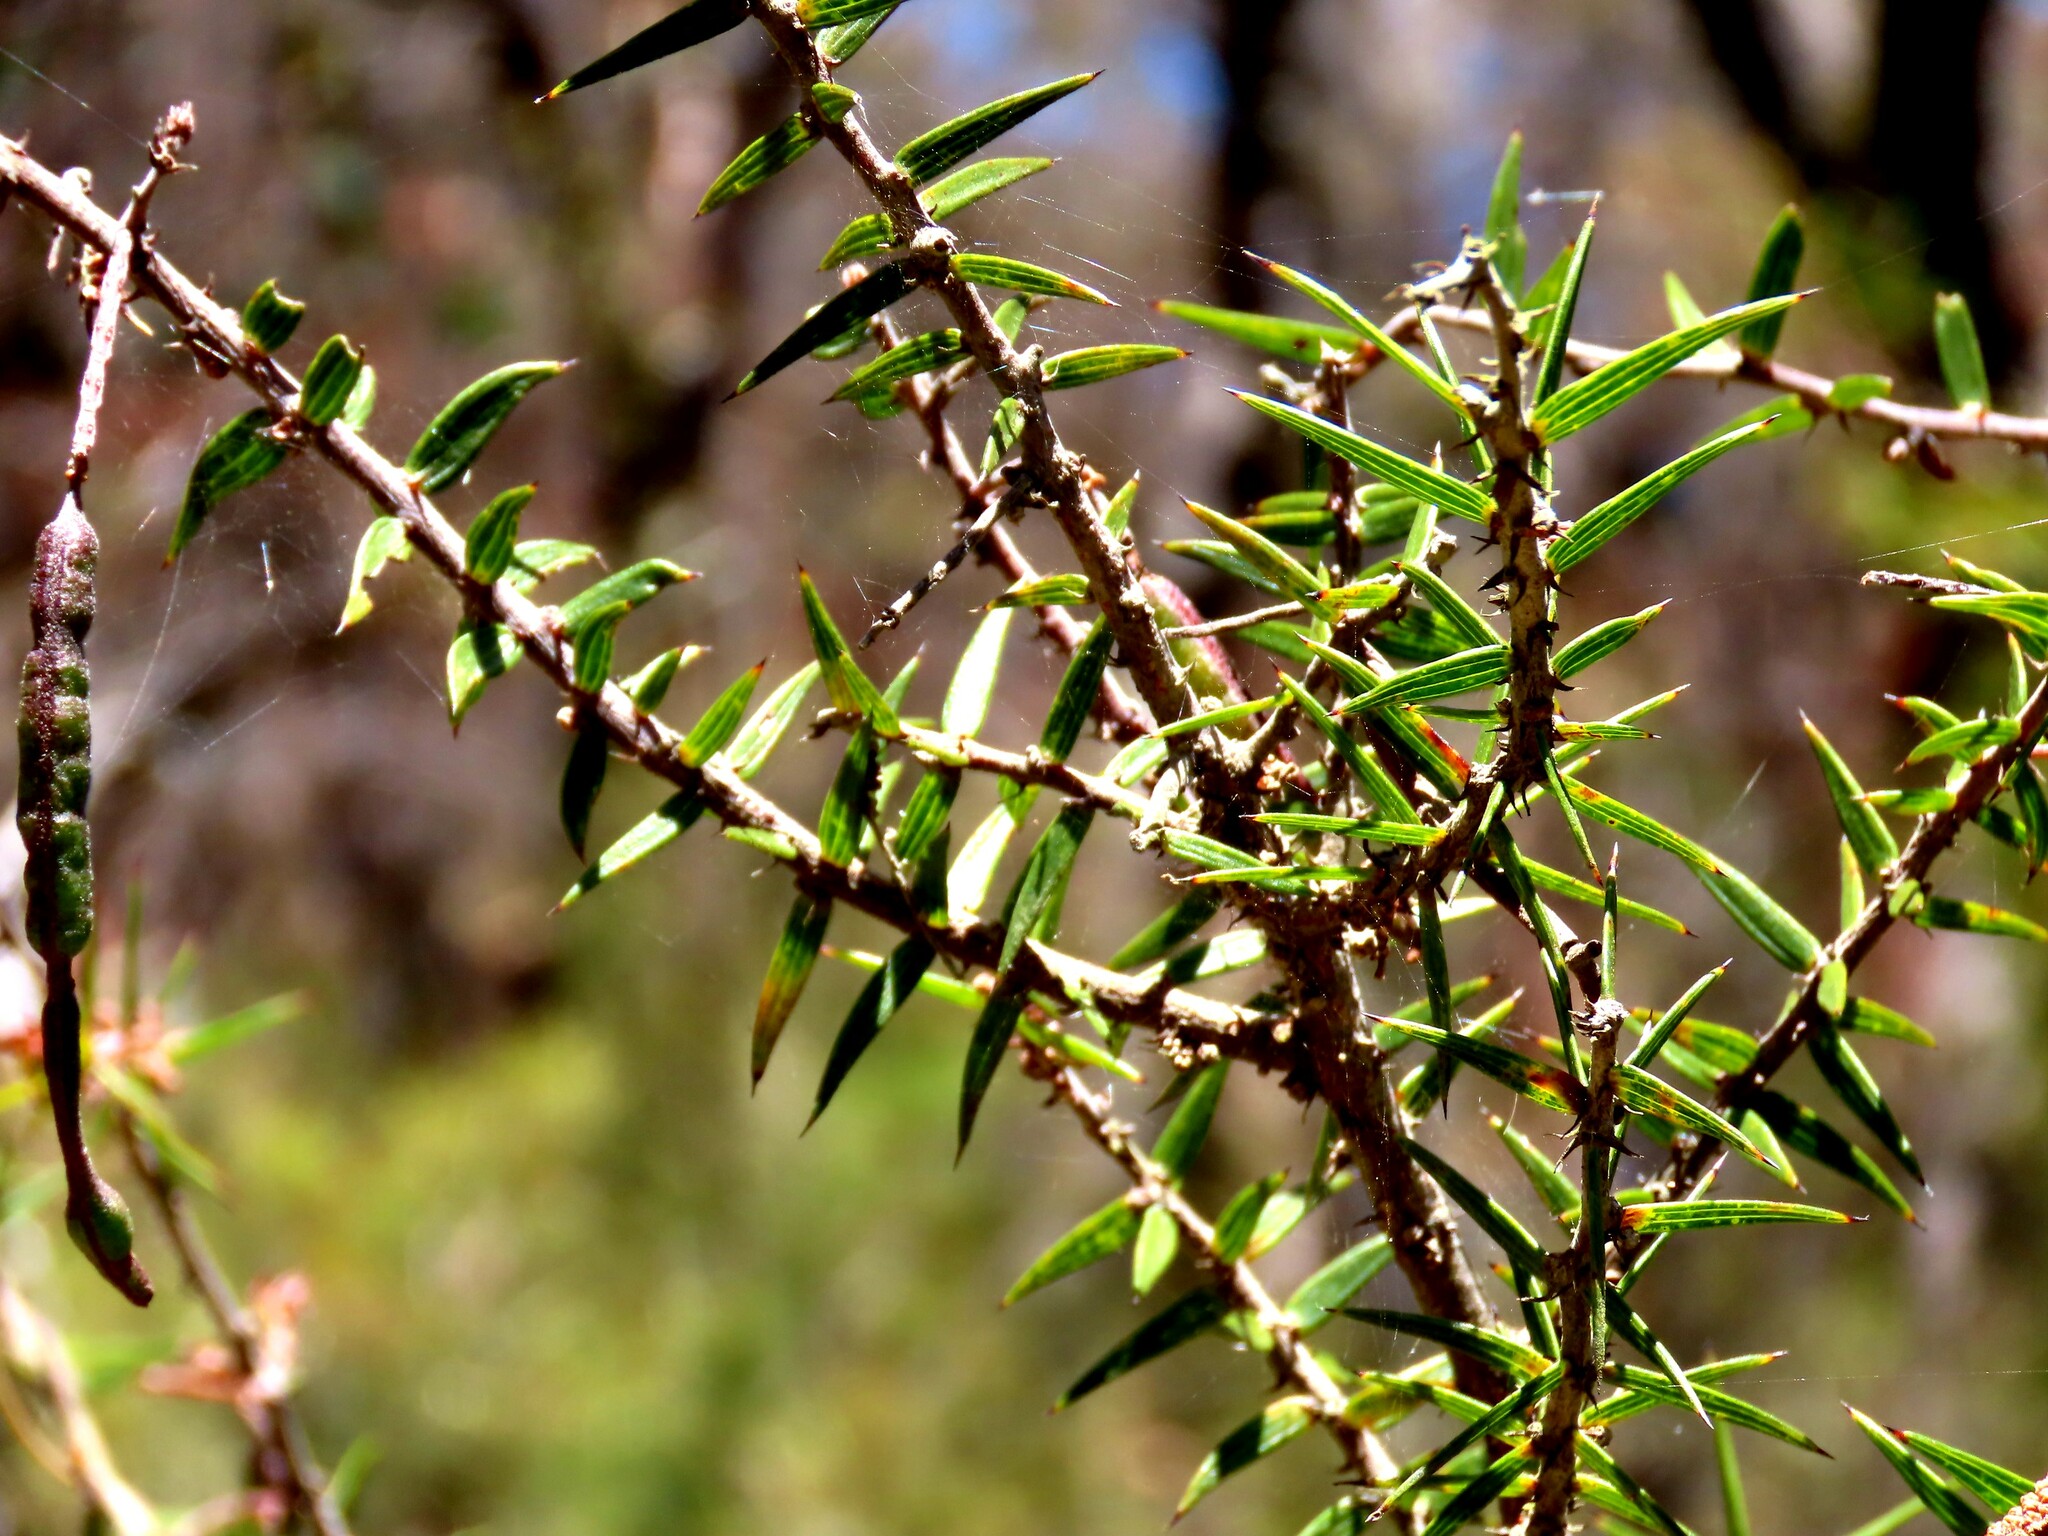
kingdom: Plantae
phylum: Tracheophyta
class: Magnoliopsida
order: Fabales
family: Fabaceae
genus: Acacia
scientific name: Acacia oxycedrus
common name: Spike wattle
